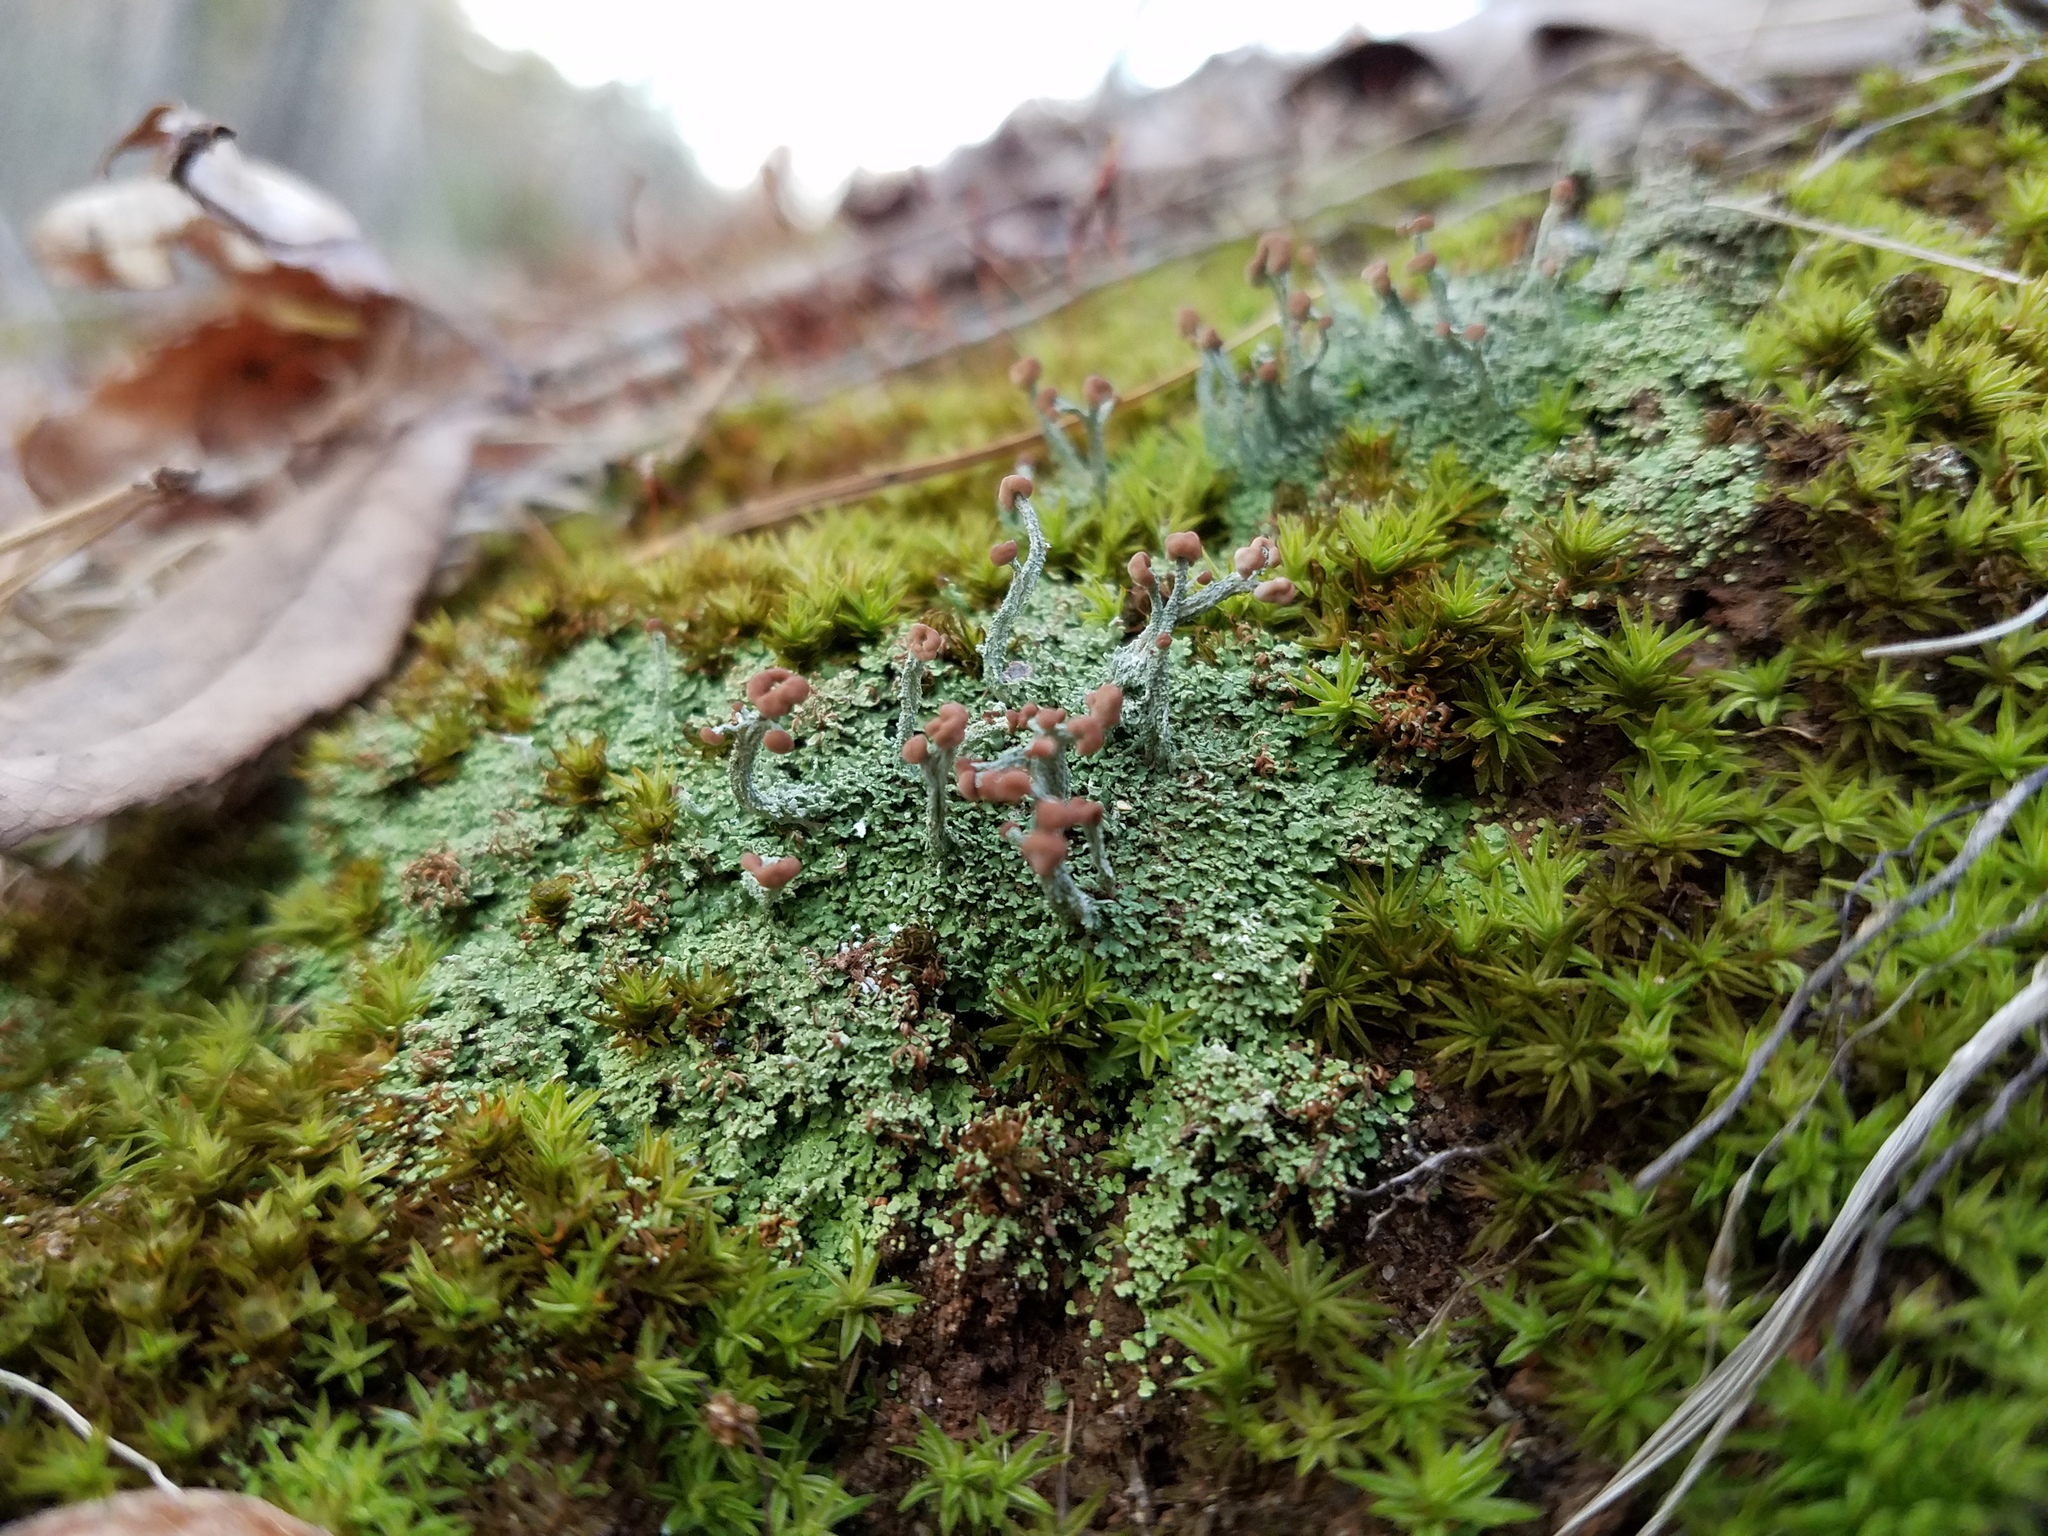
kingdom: Fungi
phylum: Ascomycota
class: Lecanoromycetes
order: Lecanorales
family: Cladoniaceae
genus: Cladonia
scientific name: Cladonia peziziformis
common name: Cup lichen
